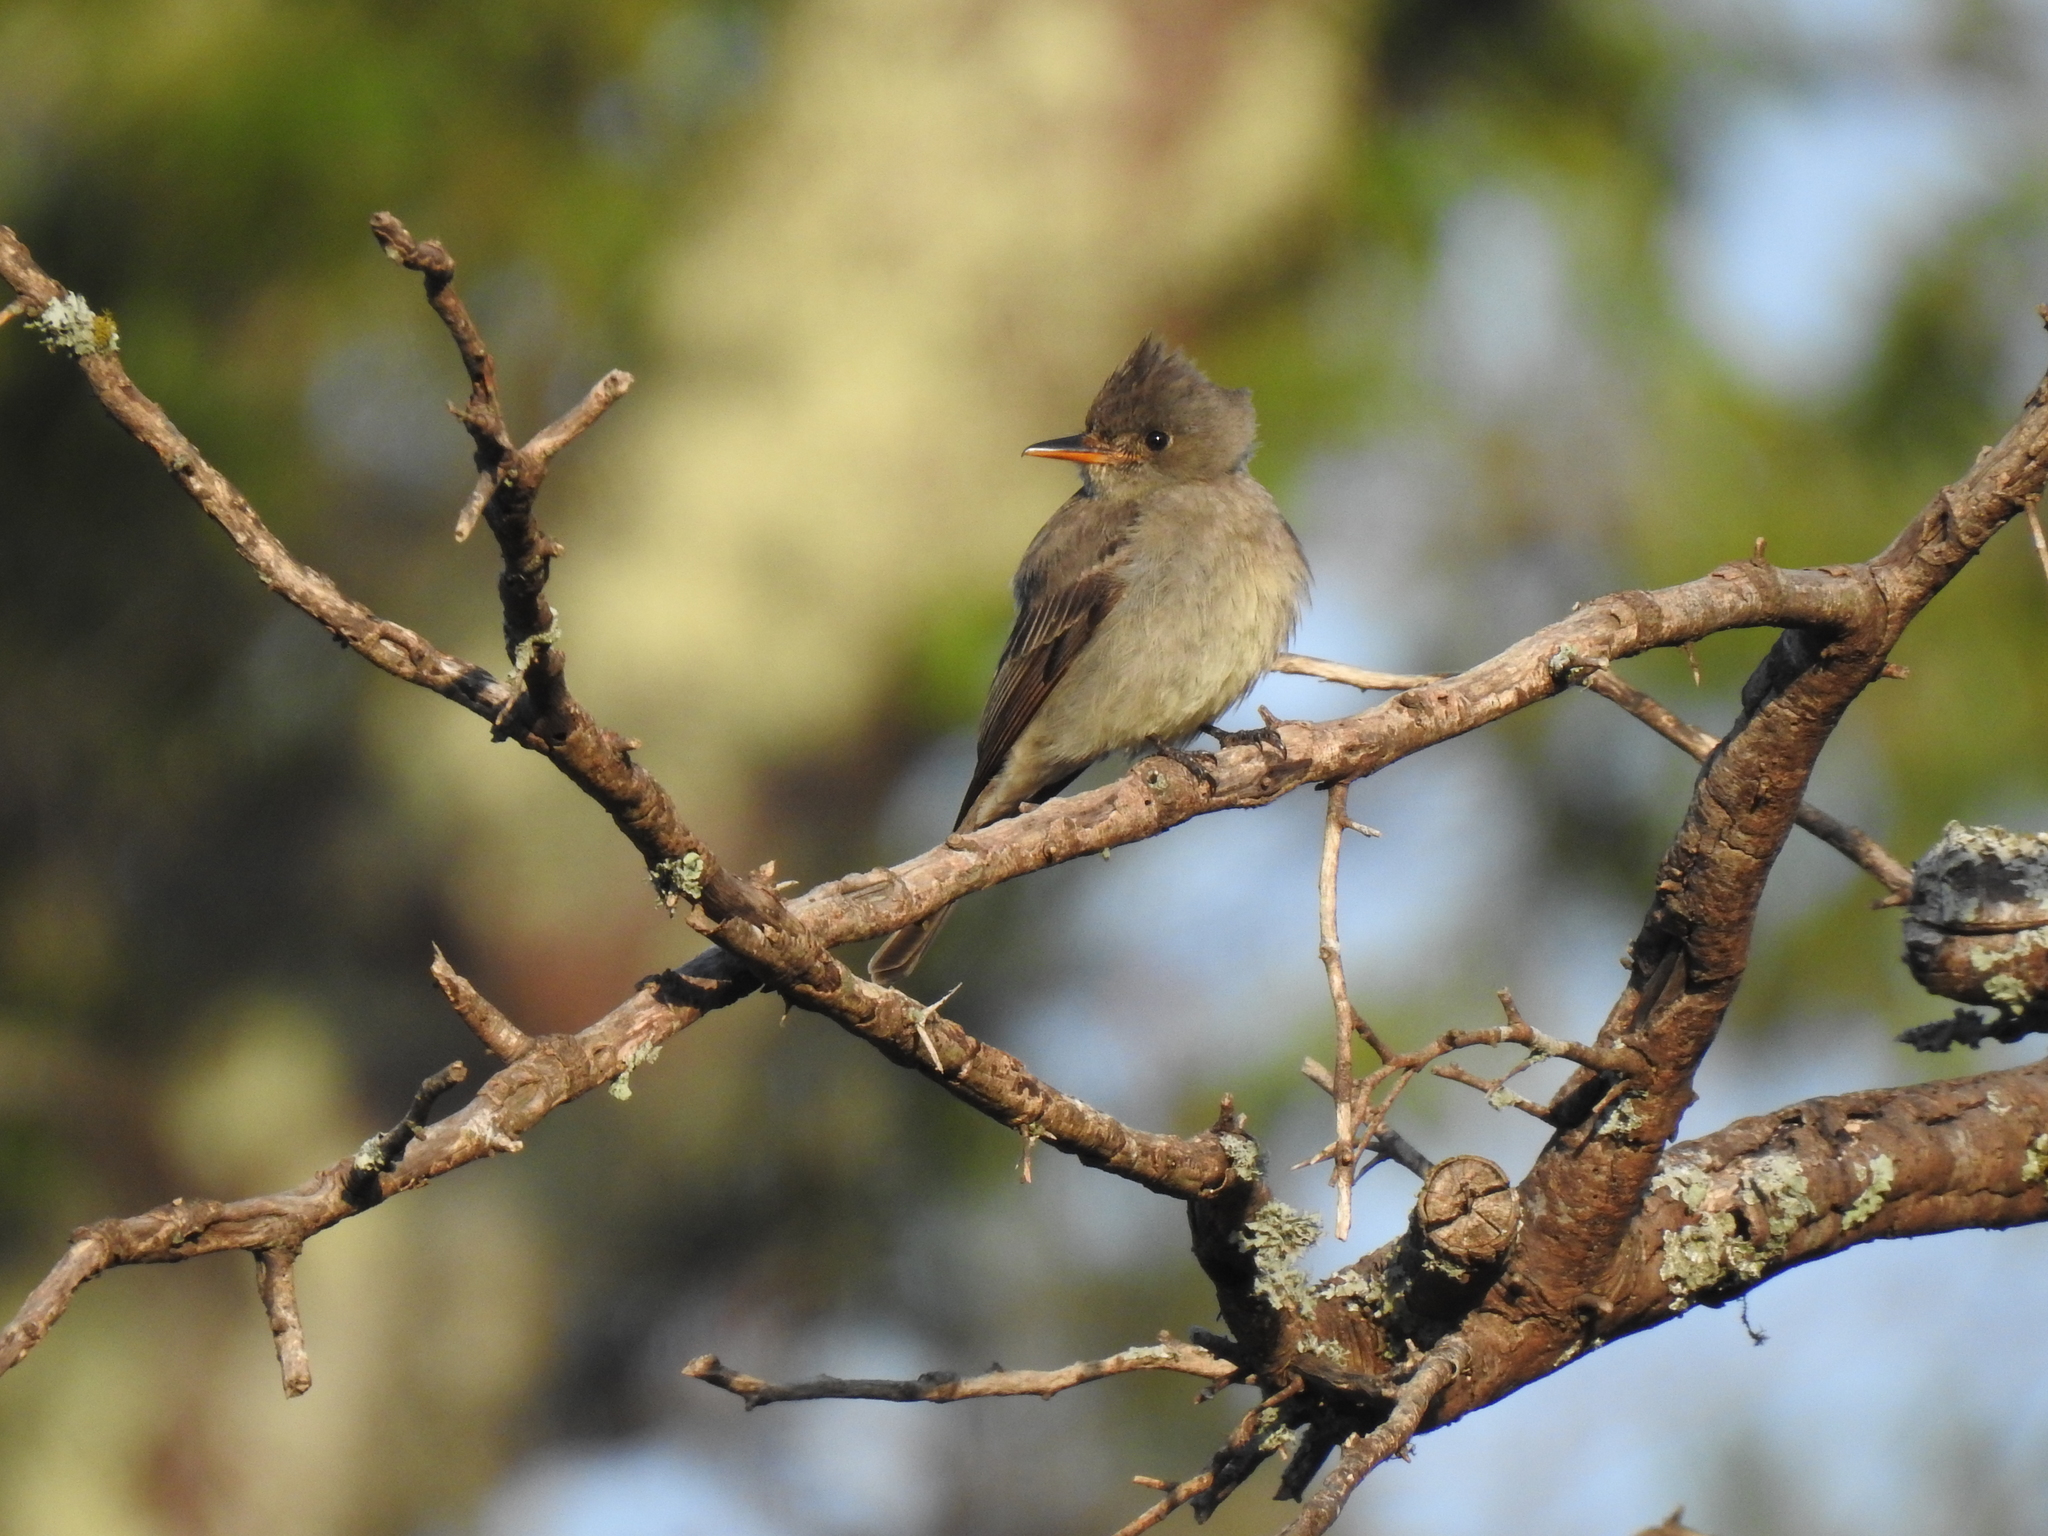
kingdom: Animalia
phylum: Chordata
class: Aves
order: Passeriformes
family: Tyrannidae
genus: Contopus
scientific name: Contopus pertinax
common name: Greater pewee
